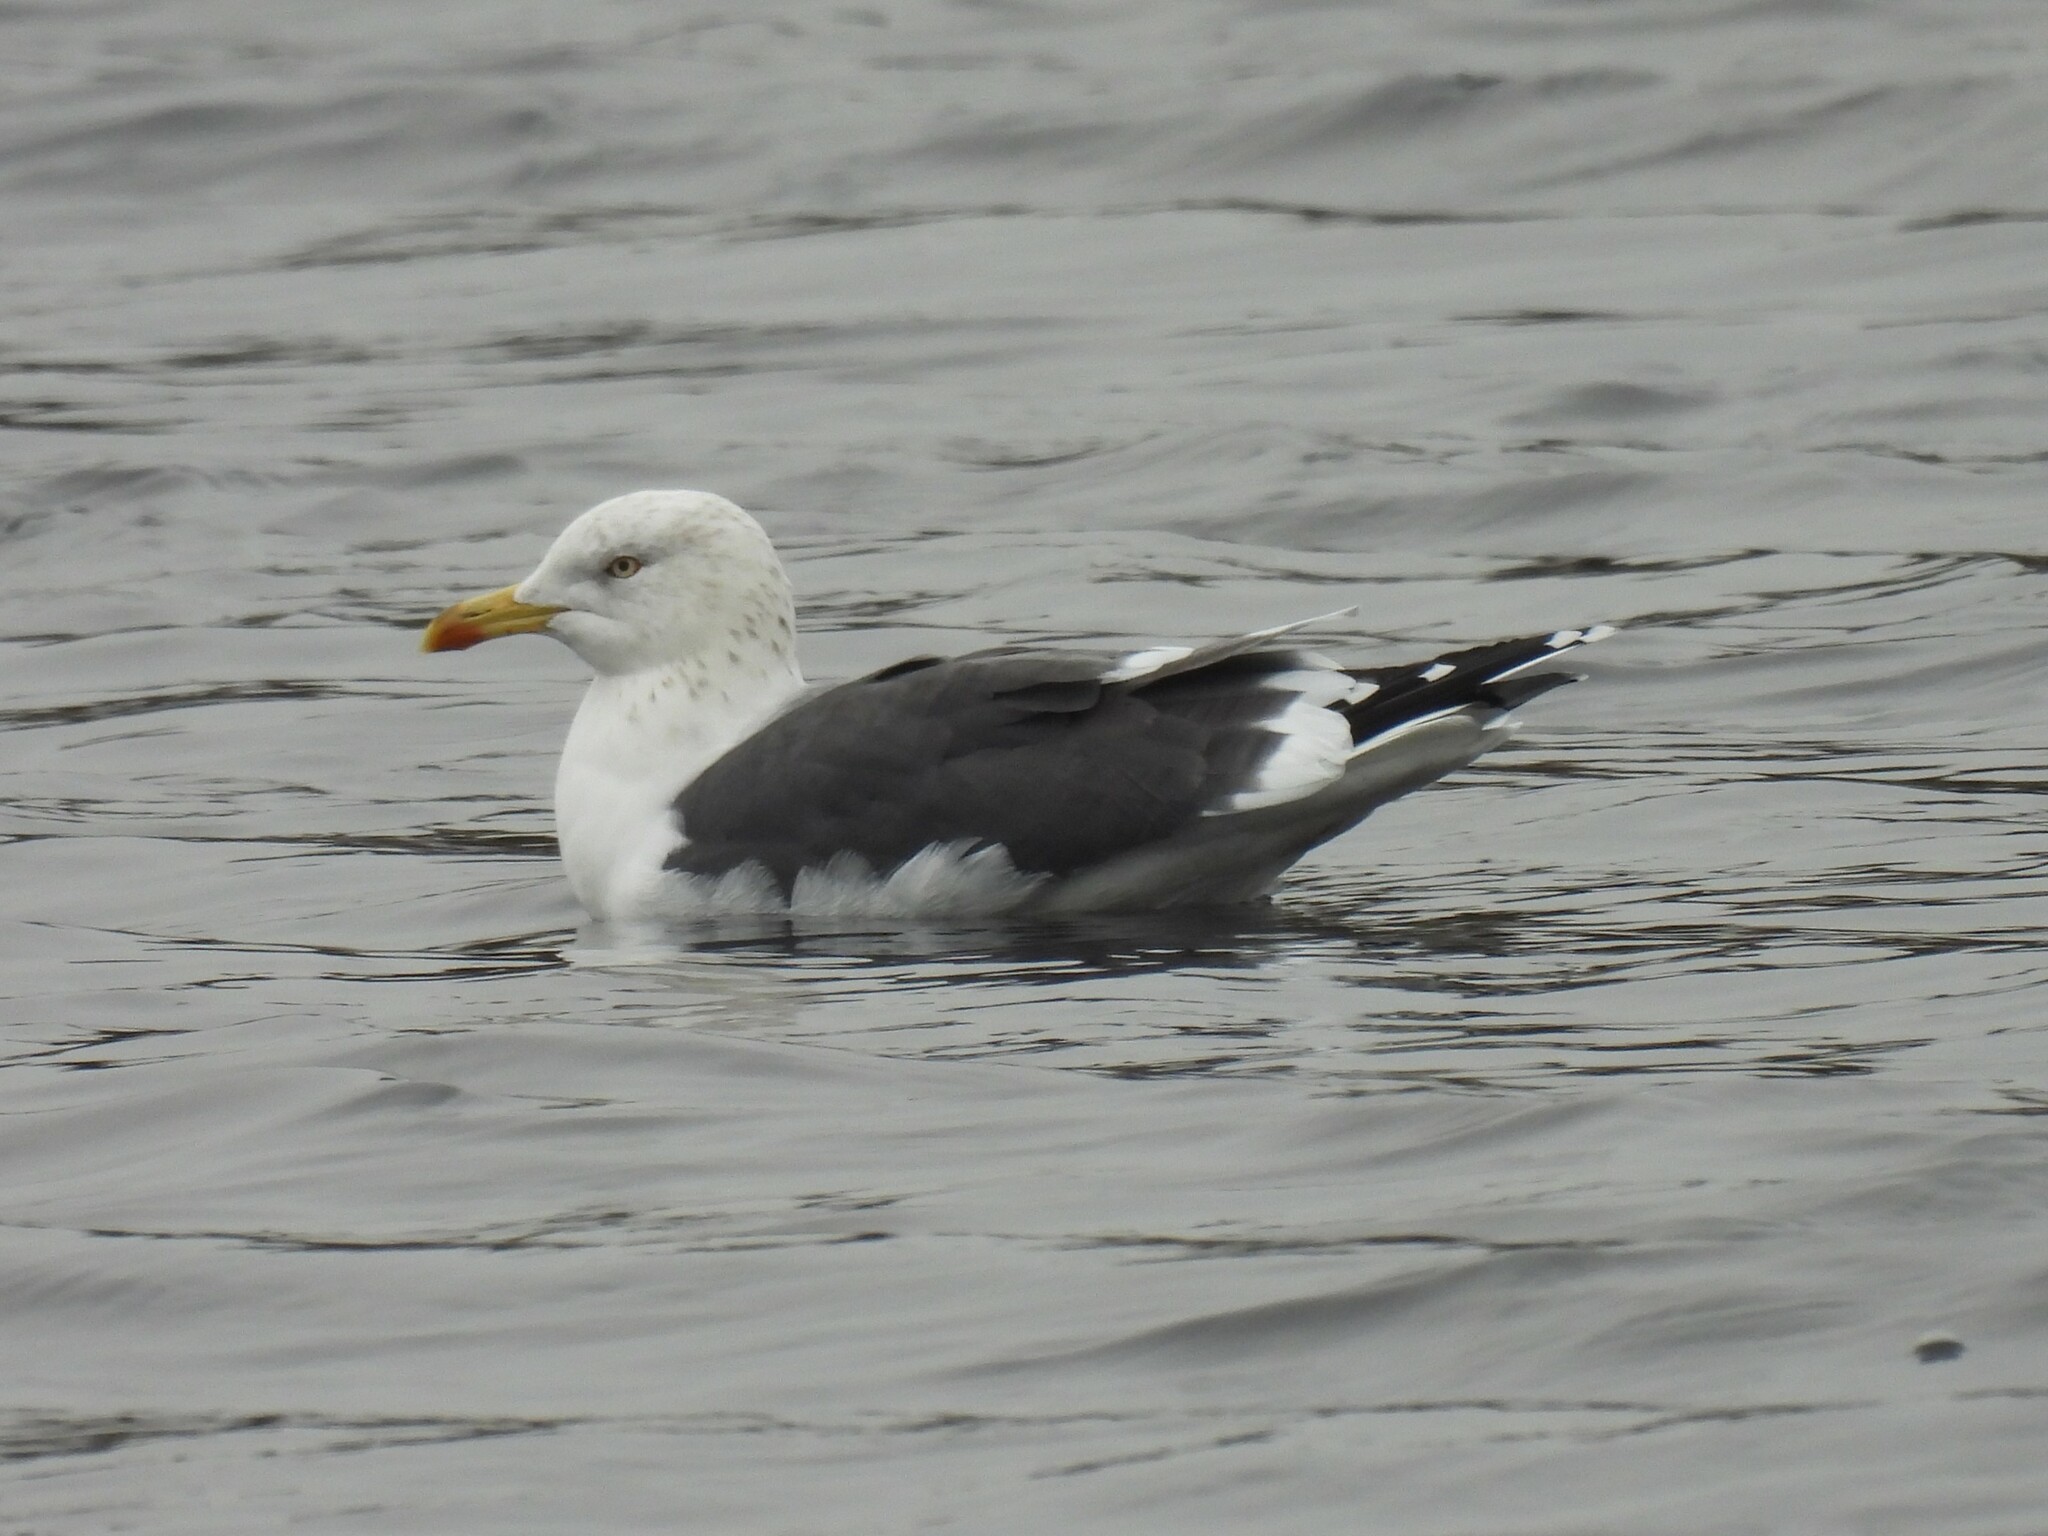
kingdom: Animalia
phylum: Chordata
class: Aves
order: Charadriiformes
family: Laridae
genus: Larus
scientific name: Larus fuscus
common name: Lesser black-backed gull
